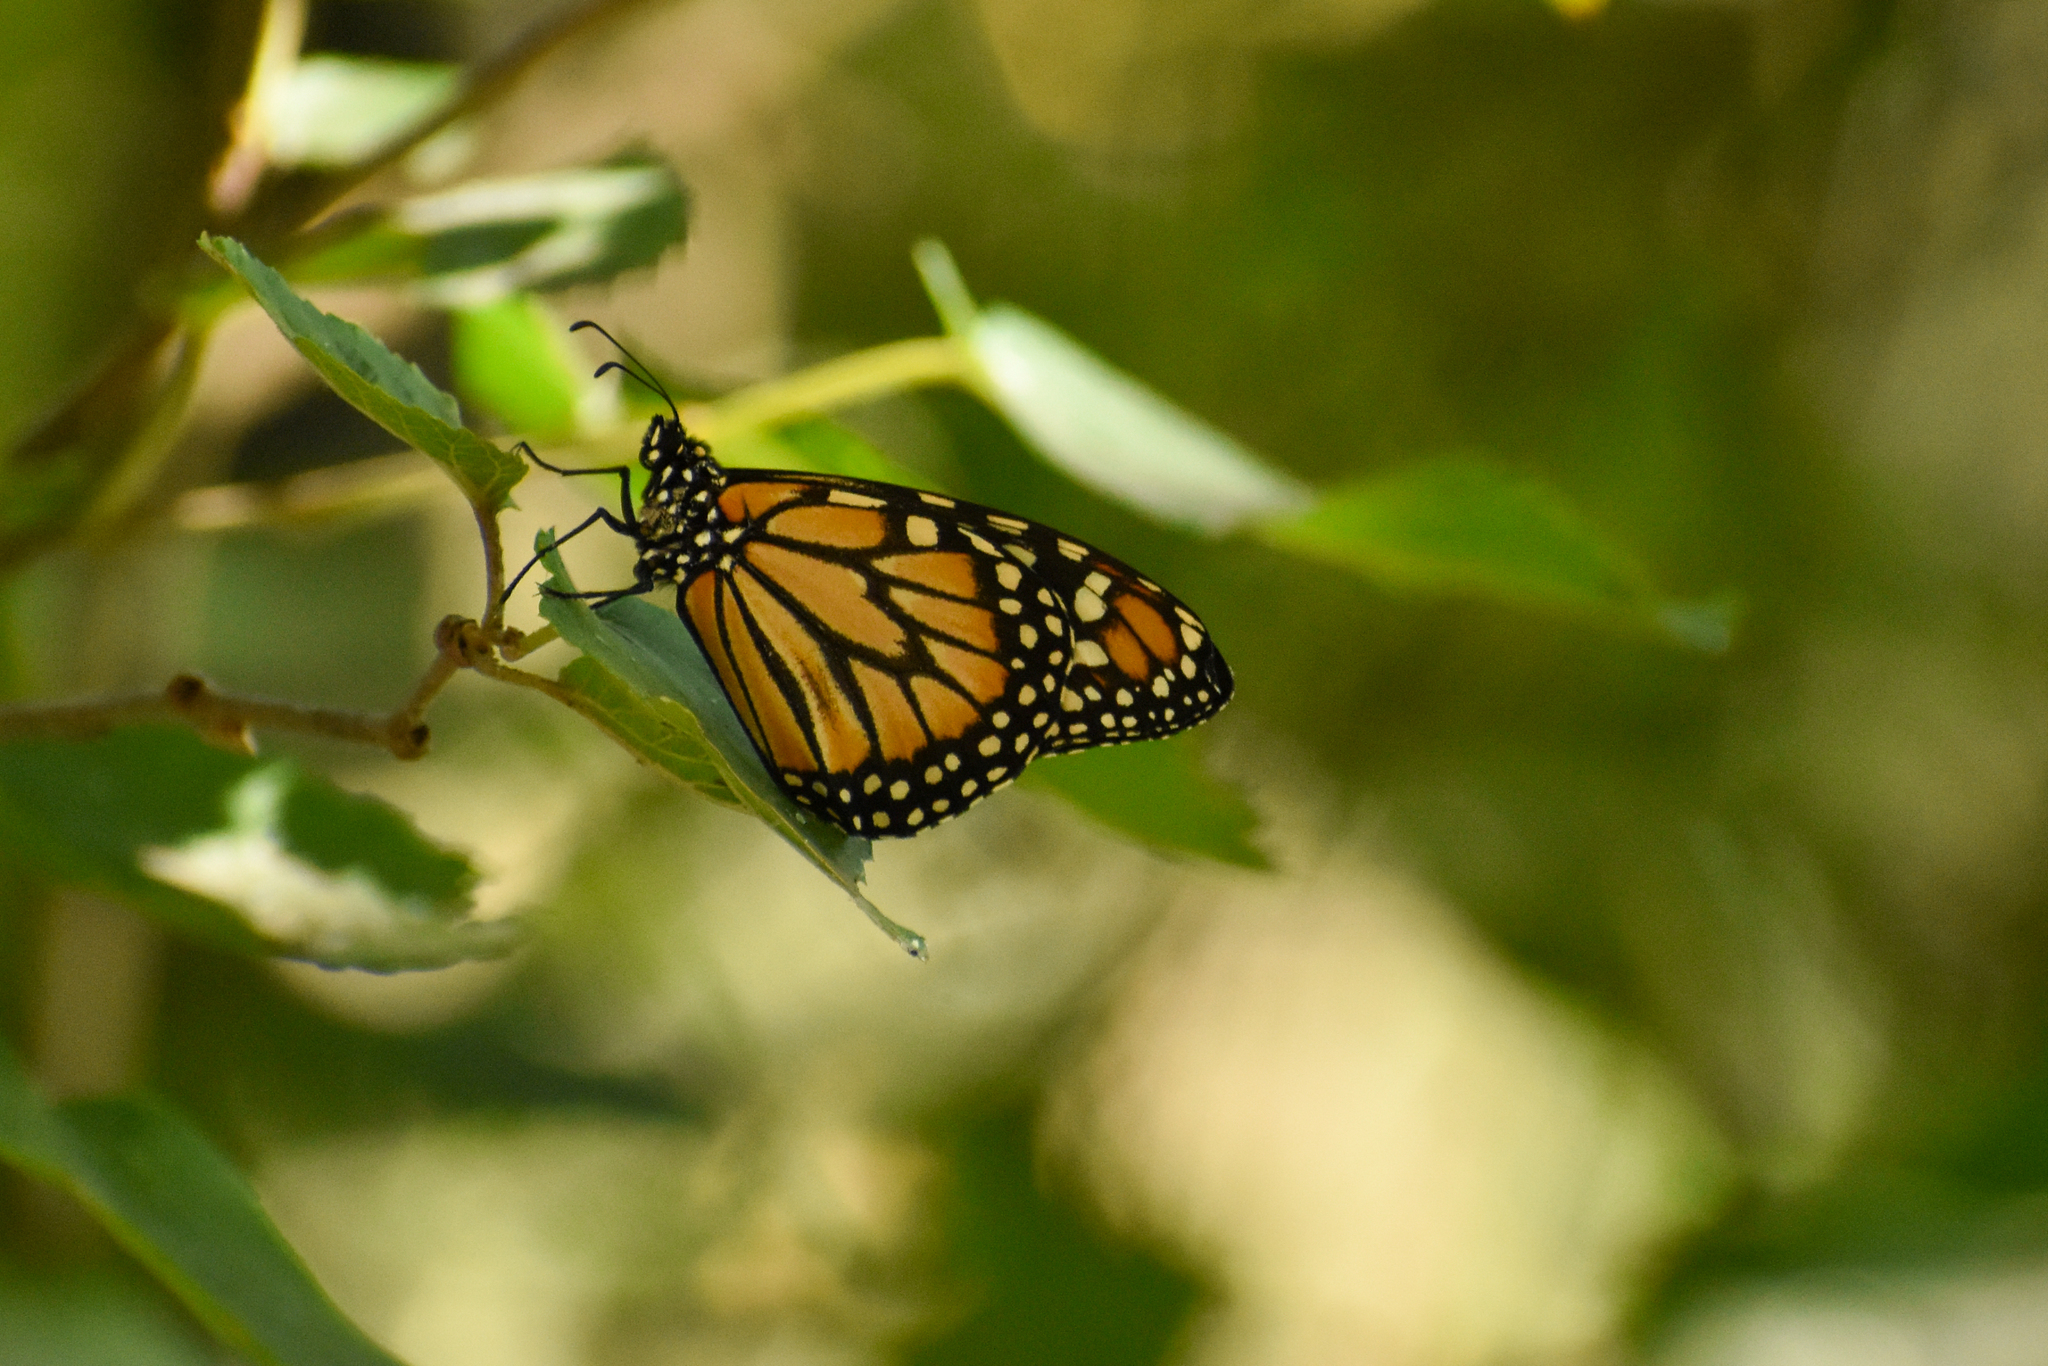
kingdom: Animalia
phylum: Arthropoda
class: Insecta
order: Lepidoptera
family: Nymphalidae
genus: Danaus
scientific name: Danaus erippus
